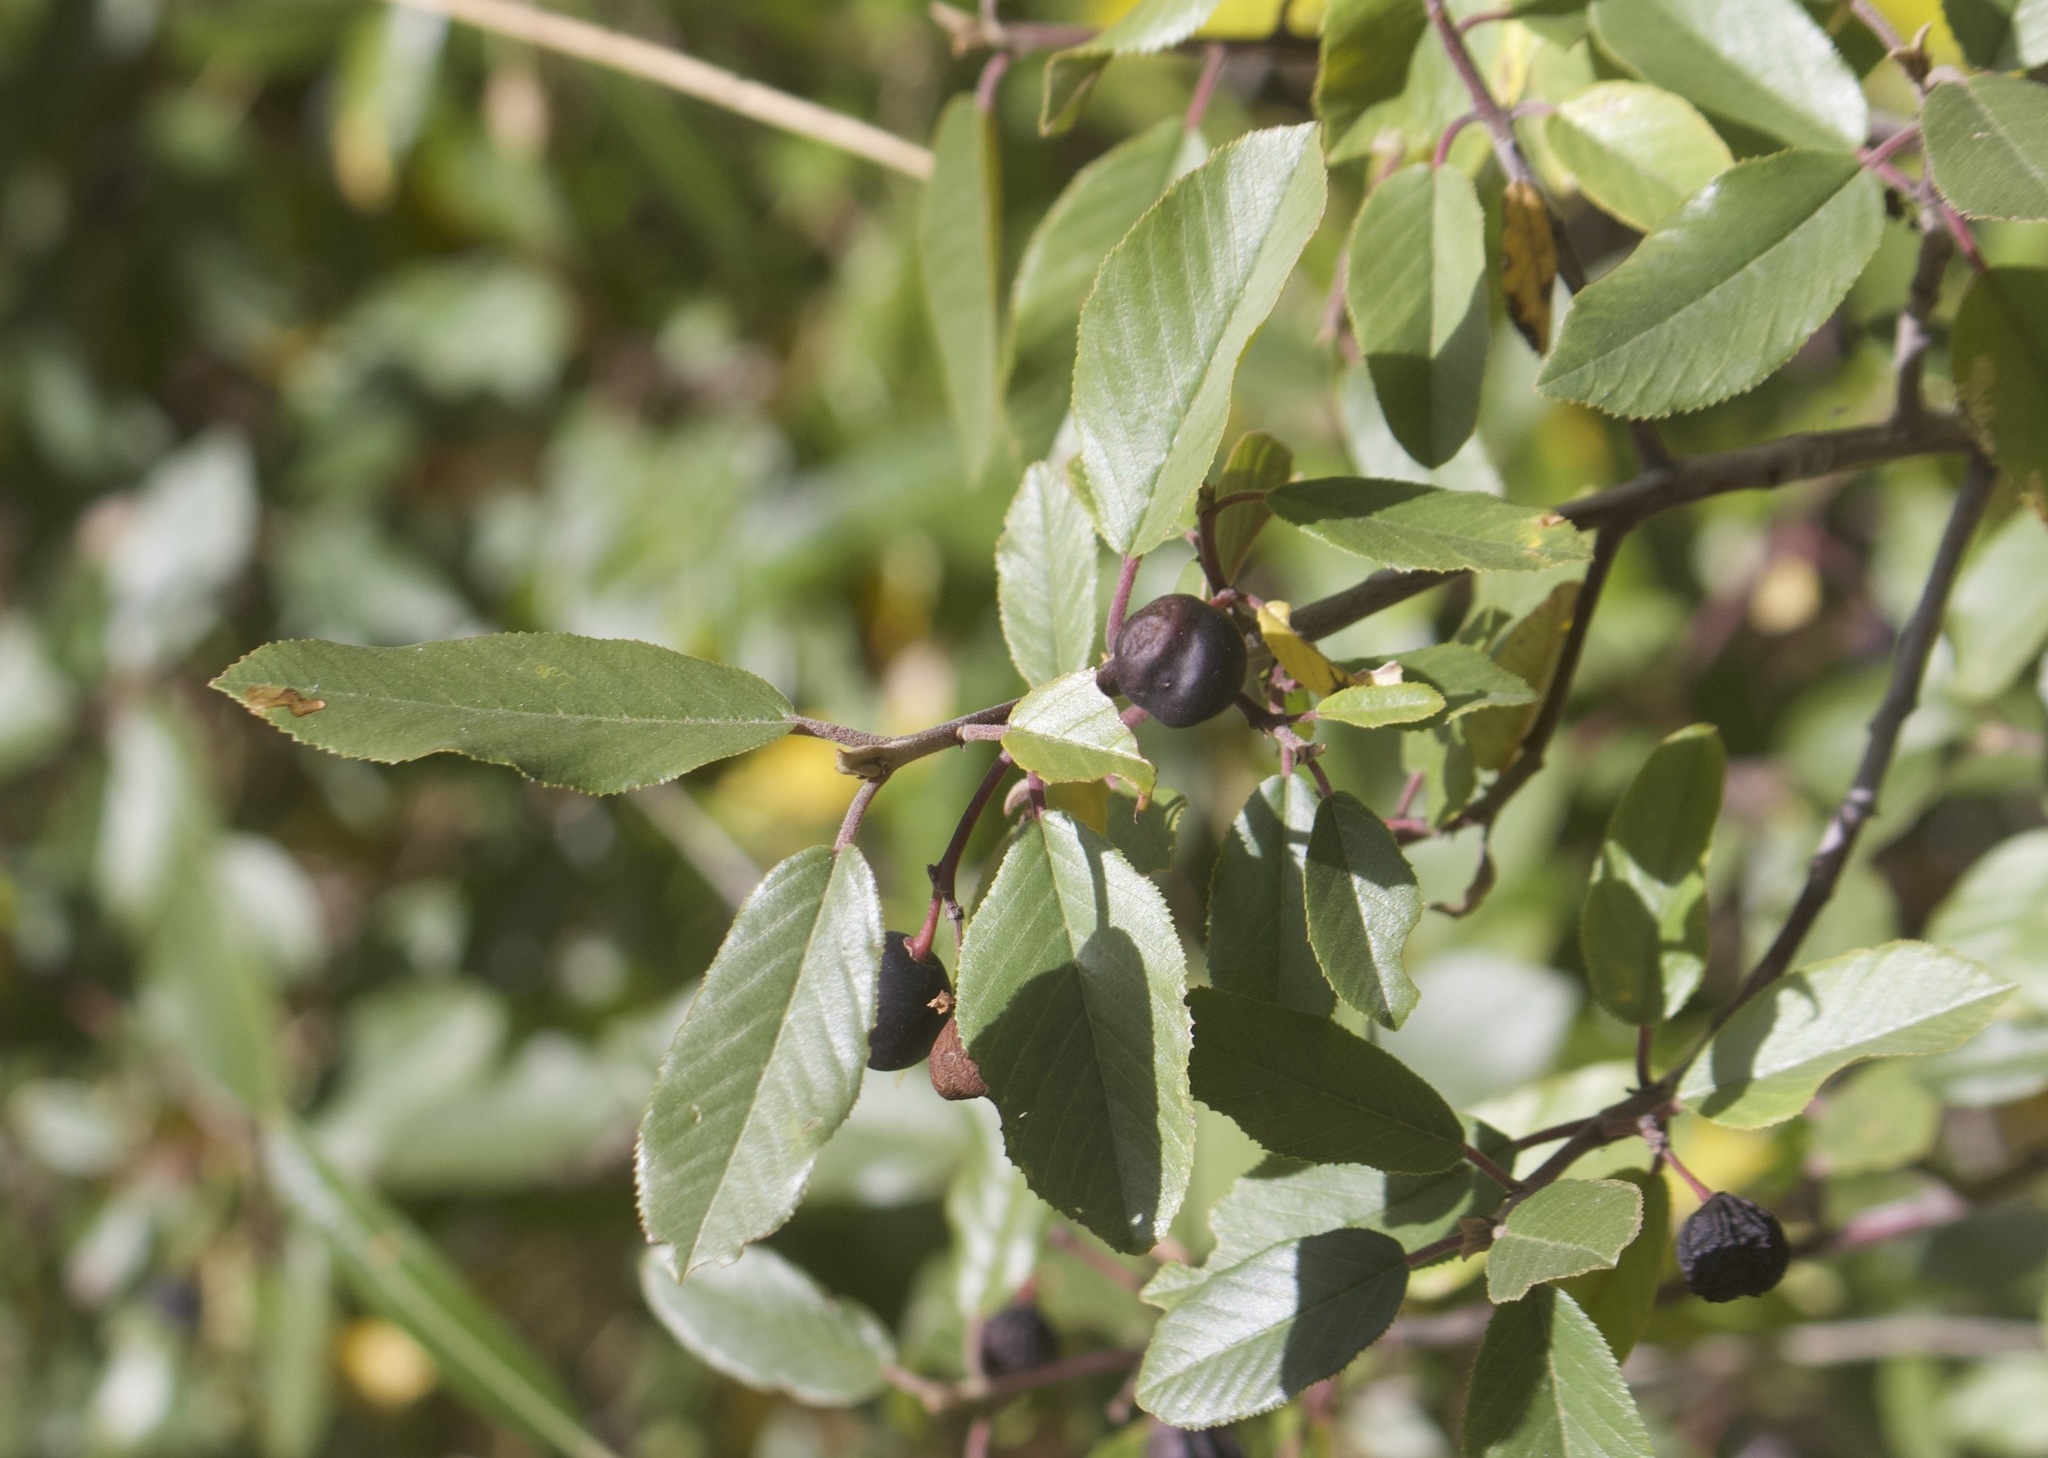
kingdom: Plantae
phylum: Tracheophyta
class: Magnoliopsida
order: Rosales
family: Rhamnaceae
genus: Frangula
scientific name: Frangula californica
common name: California buckthorn
